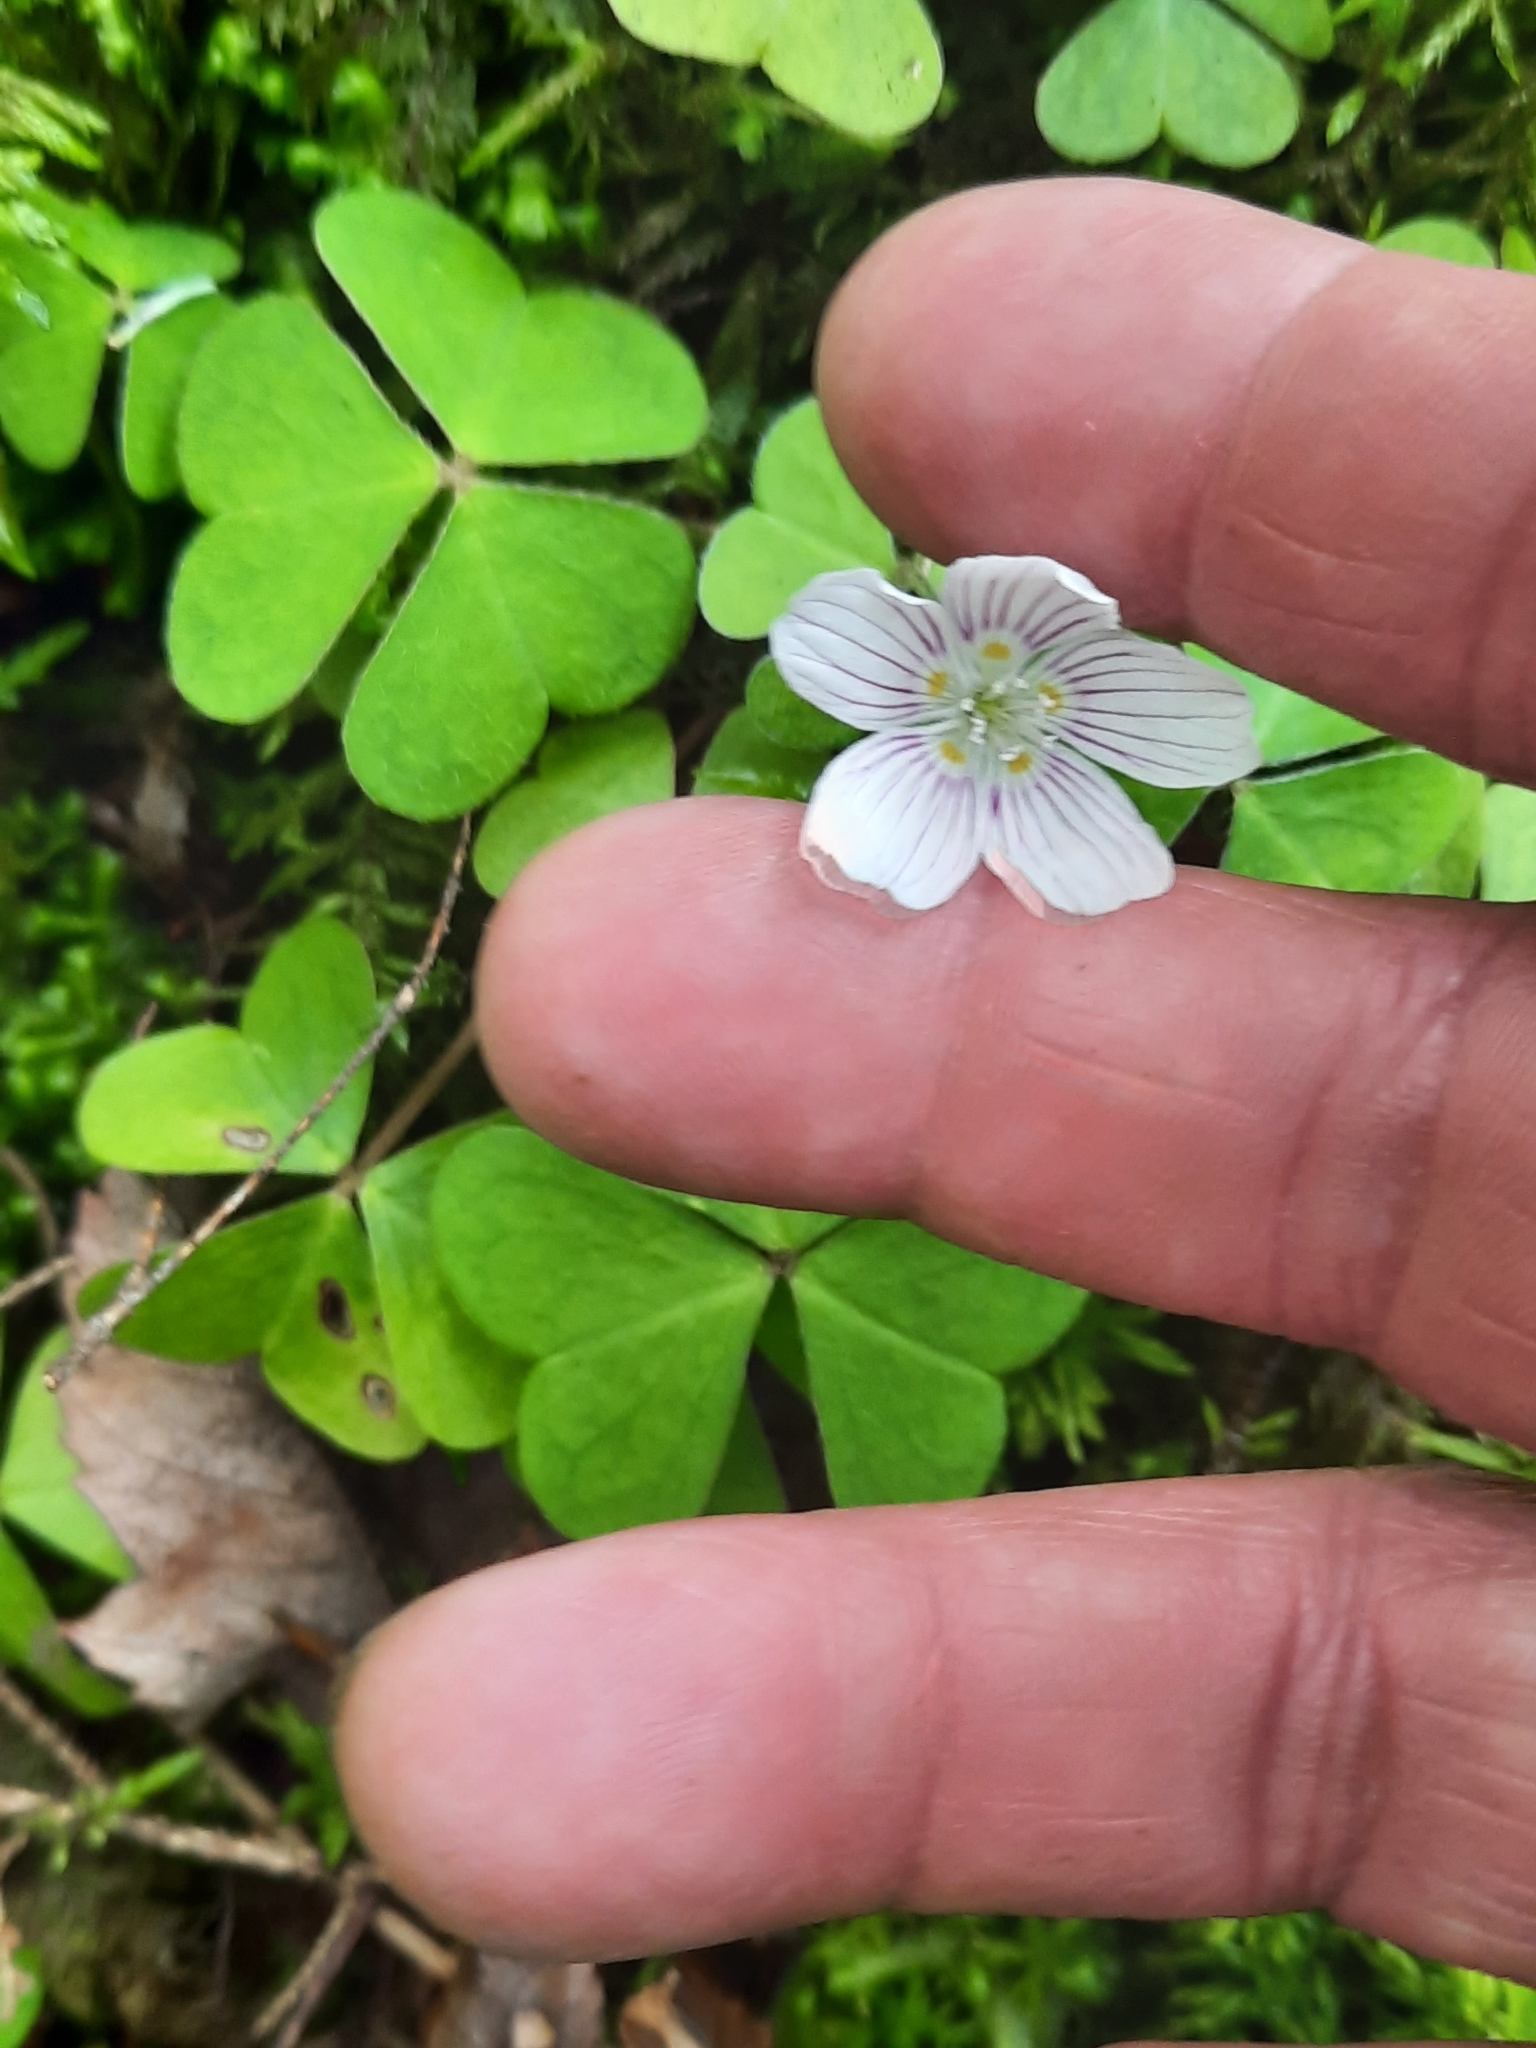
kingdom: Plantae
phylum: Tracheophyta
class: Magnoliopsida
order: Oxalidales
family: Oxalidaceae
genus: Oxalis
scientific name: Oxalis montana
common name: American wood-sorrel
